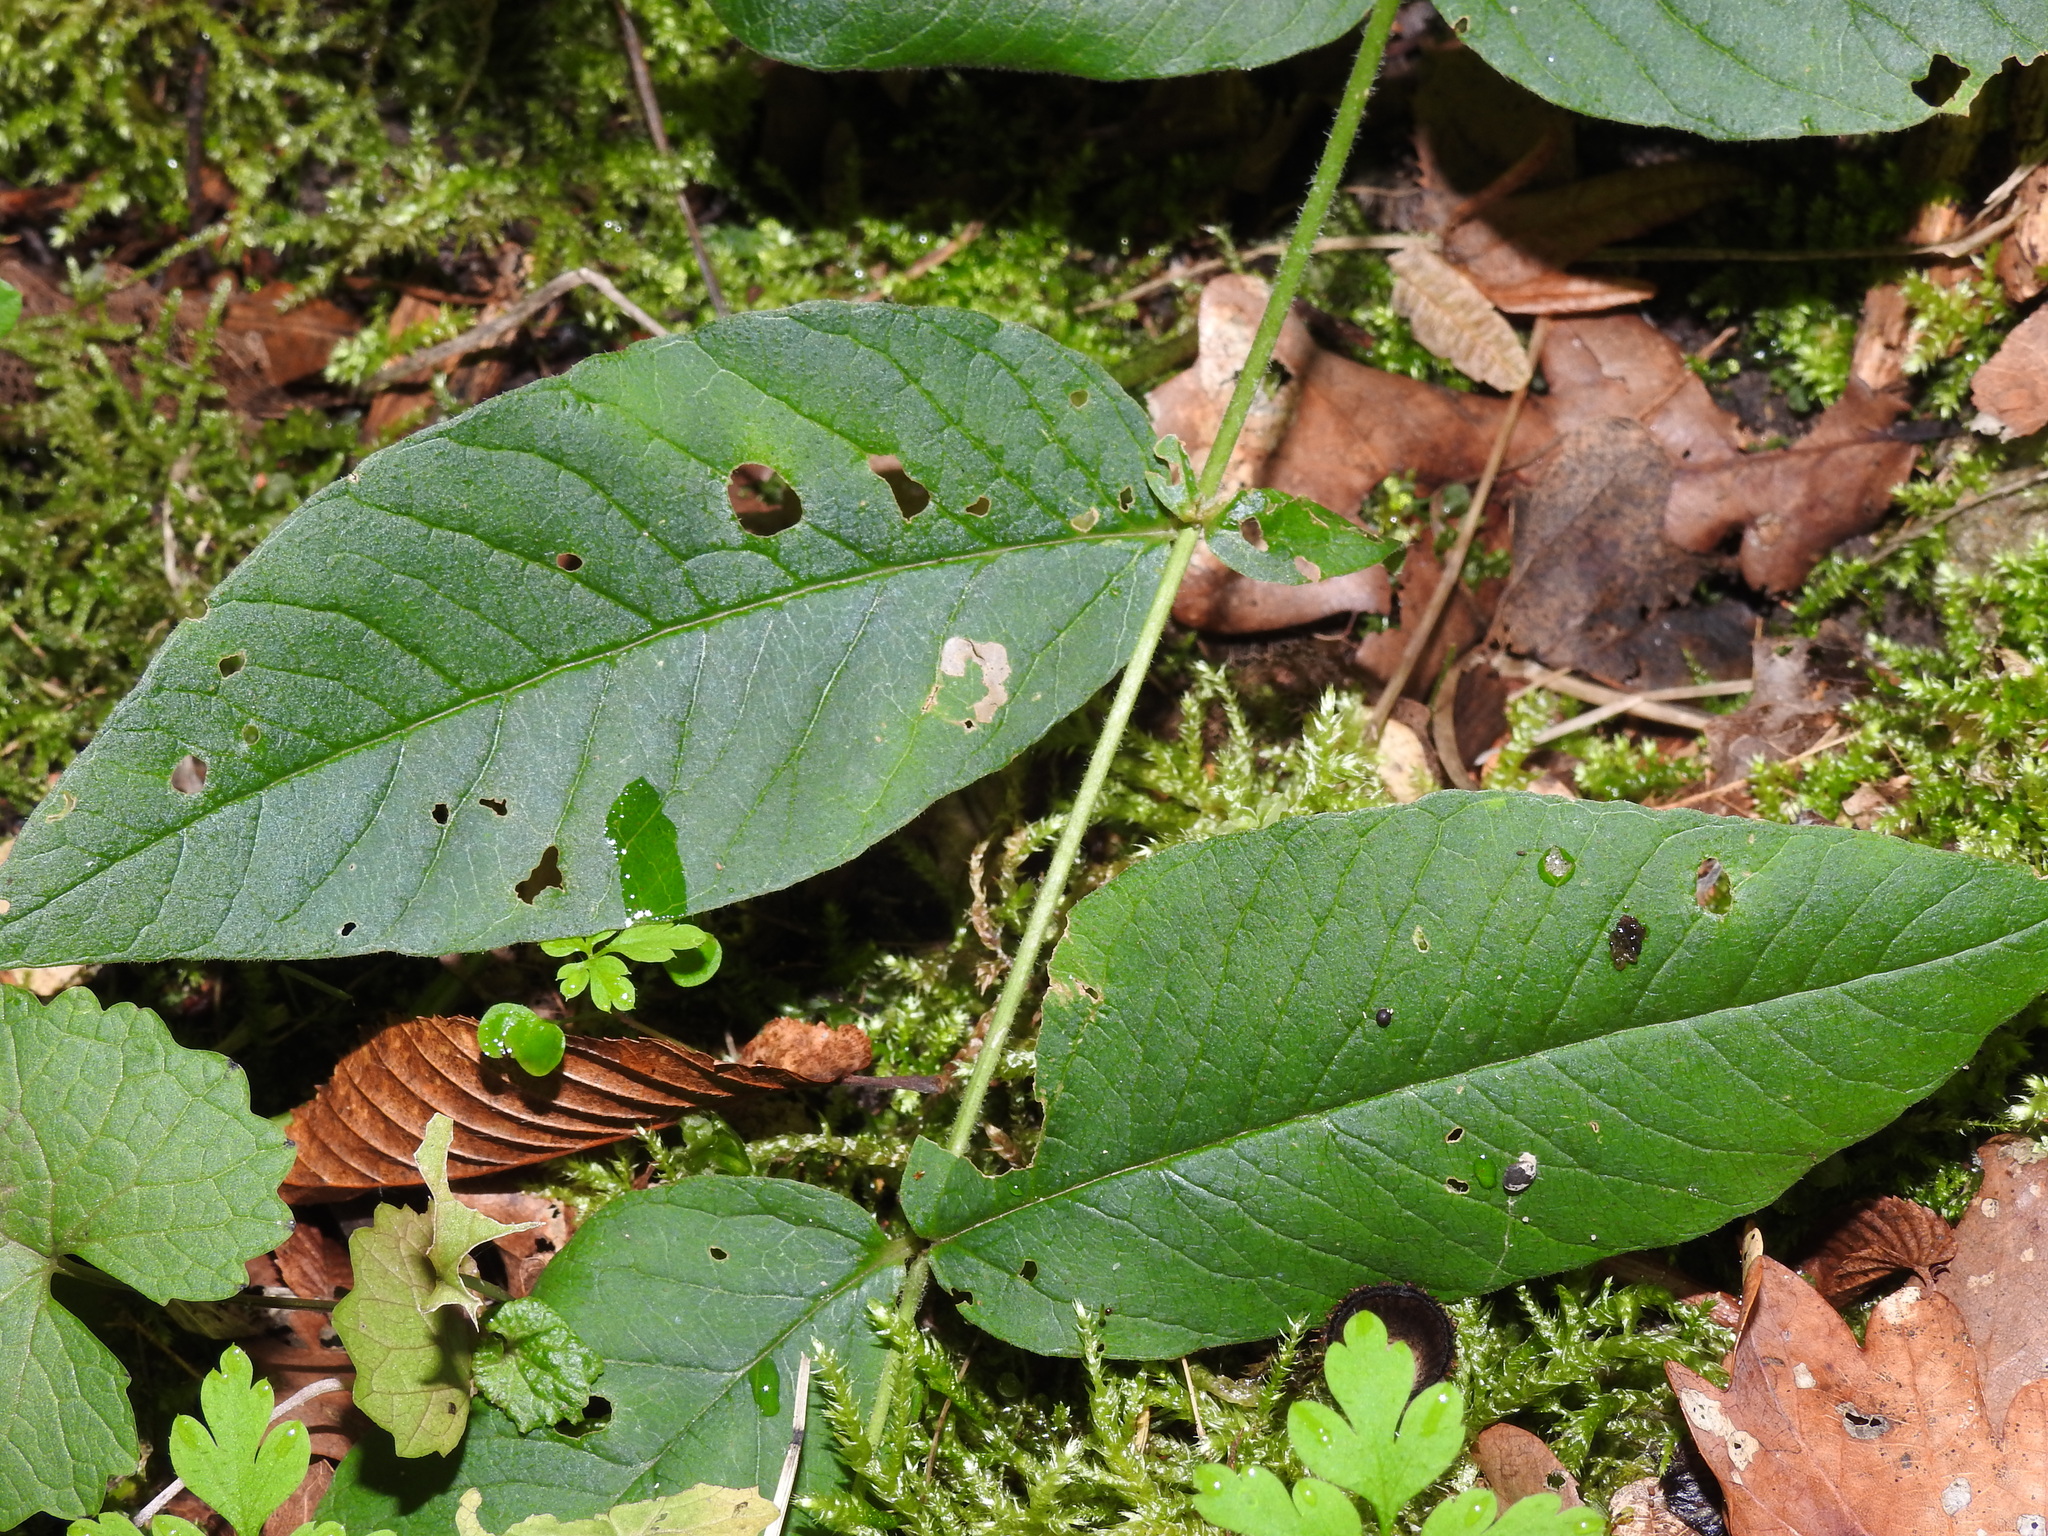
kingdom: Plantae
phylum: Tracheophyta
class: Magnoliopsida
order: Ericales
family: Primulaceae
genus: Lysimachia
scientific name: Lysimachia vulgaris
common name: Yellow loosestrife
